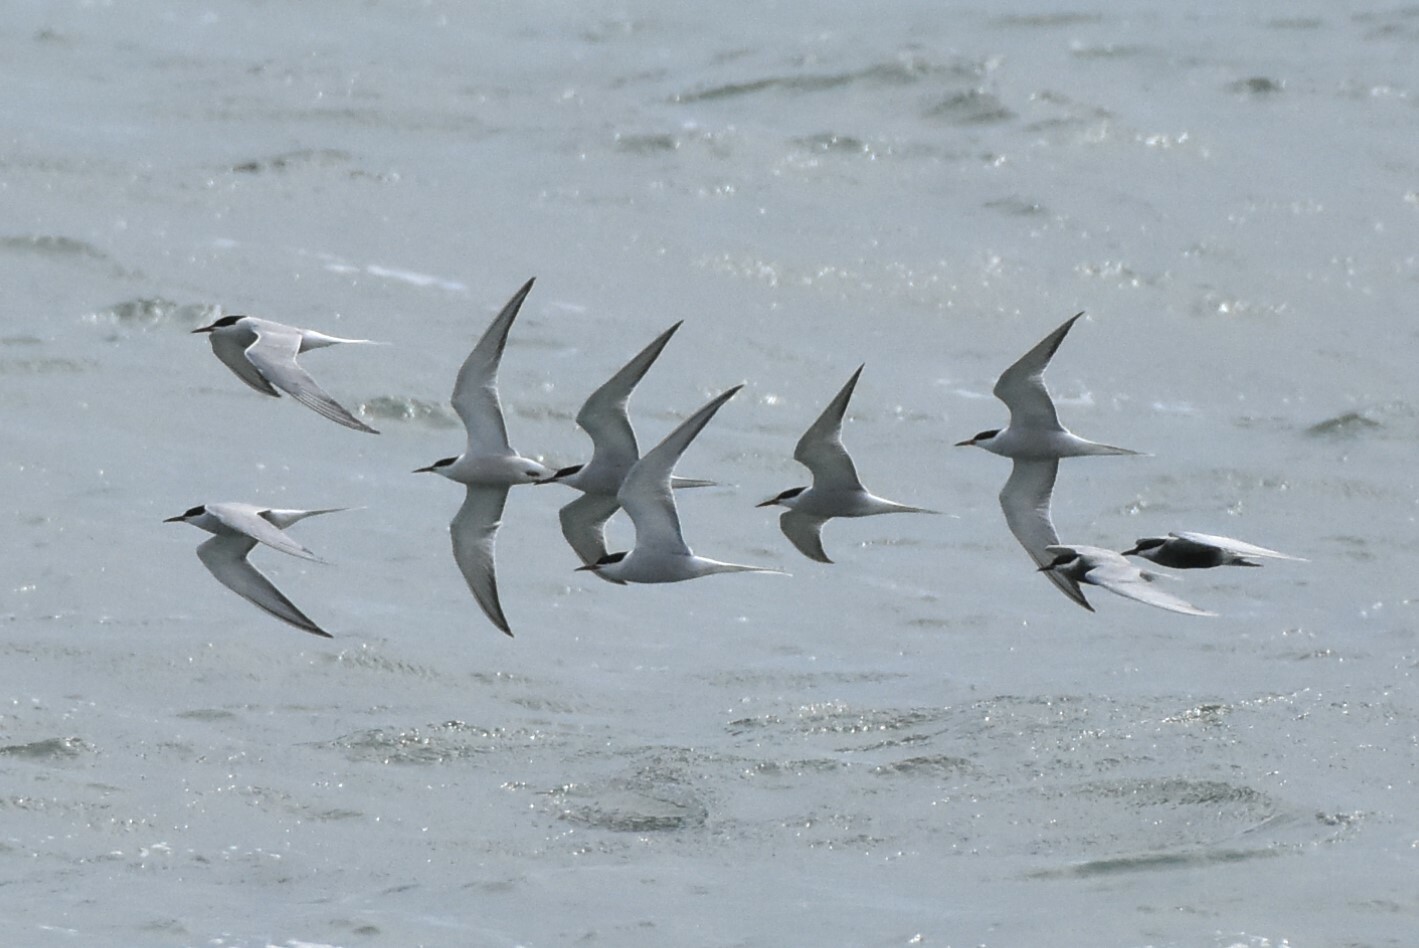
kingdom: Animalia
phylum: Chordata
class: Aves
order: Charadriiformes
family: Laridae
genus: Sterna
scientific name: Sterna hirundo
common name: Common tern
